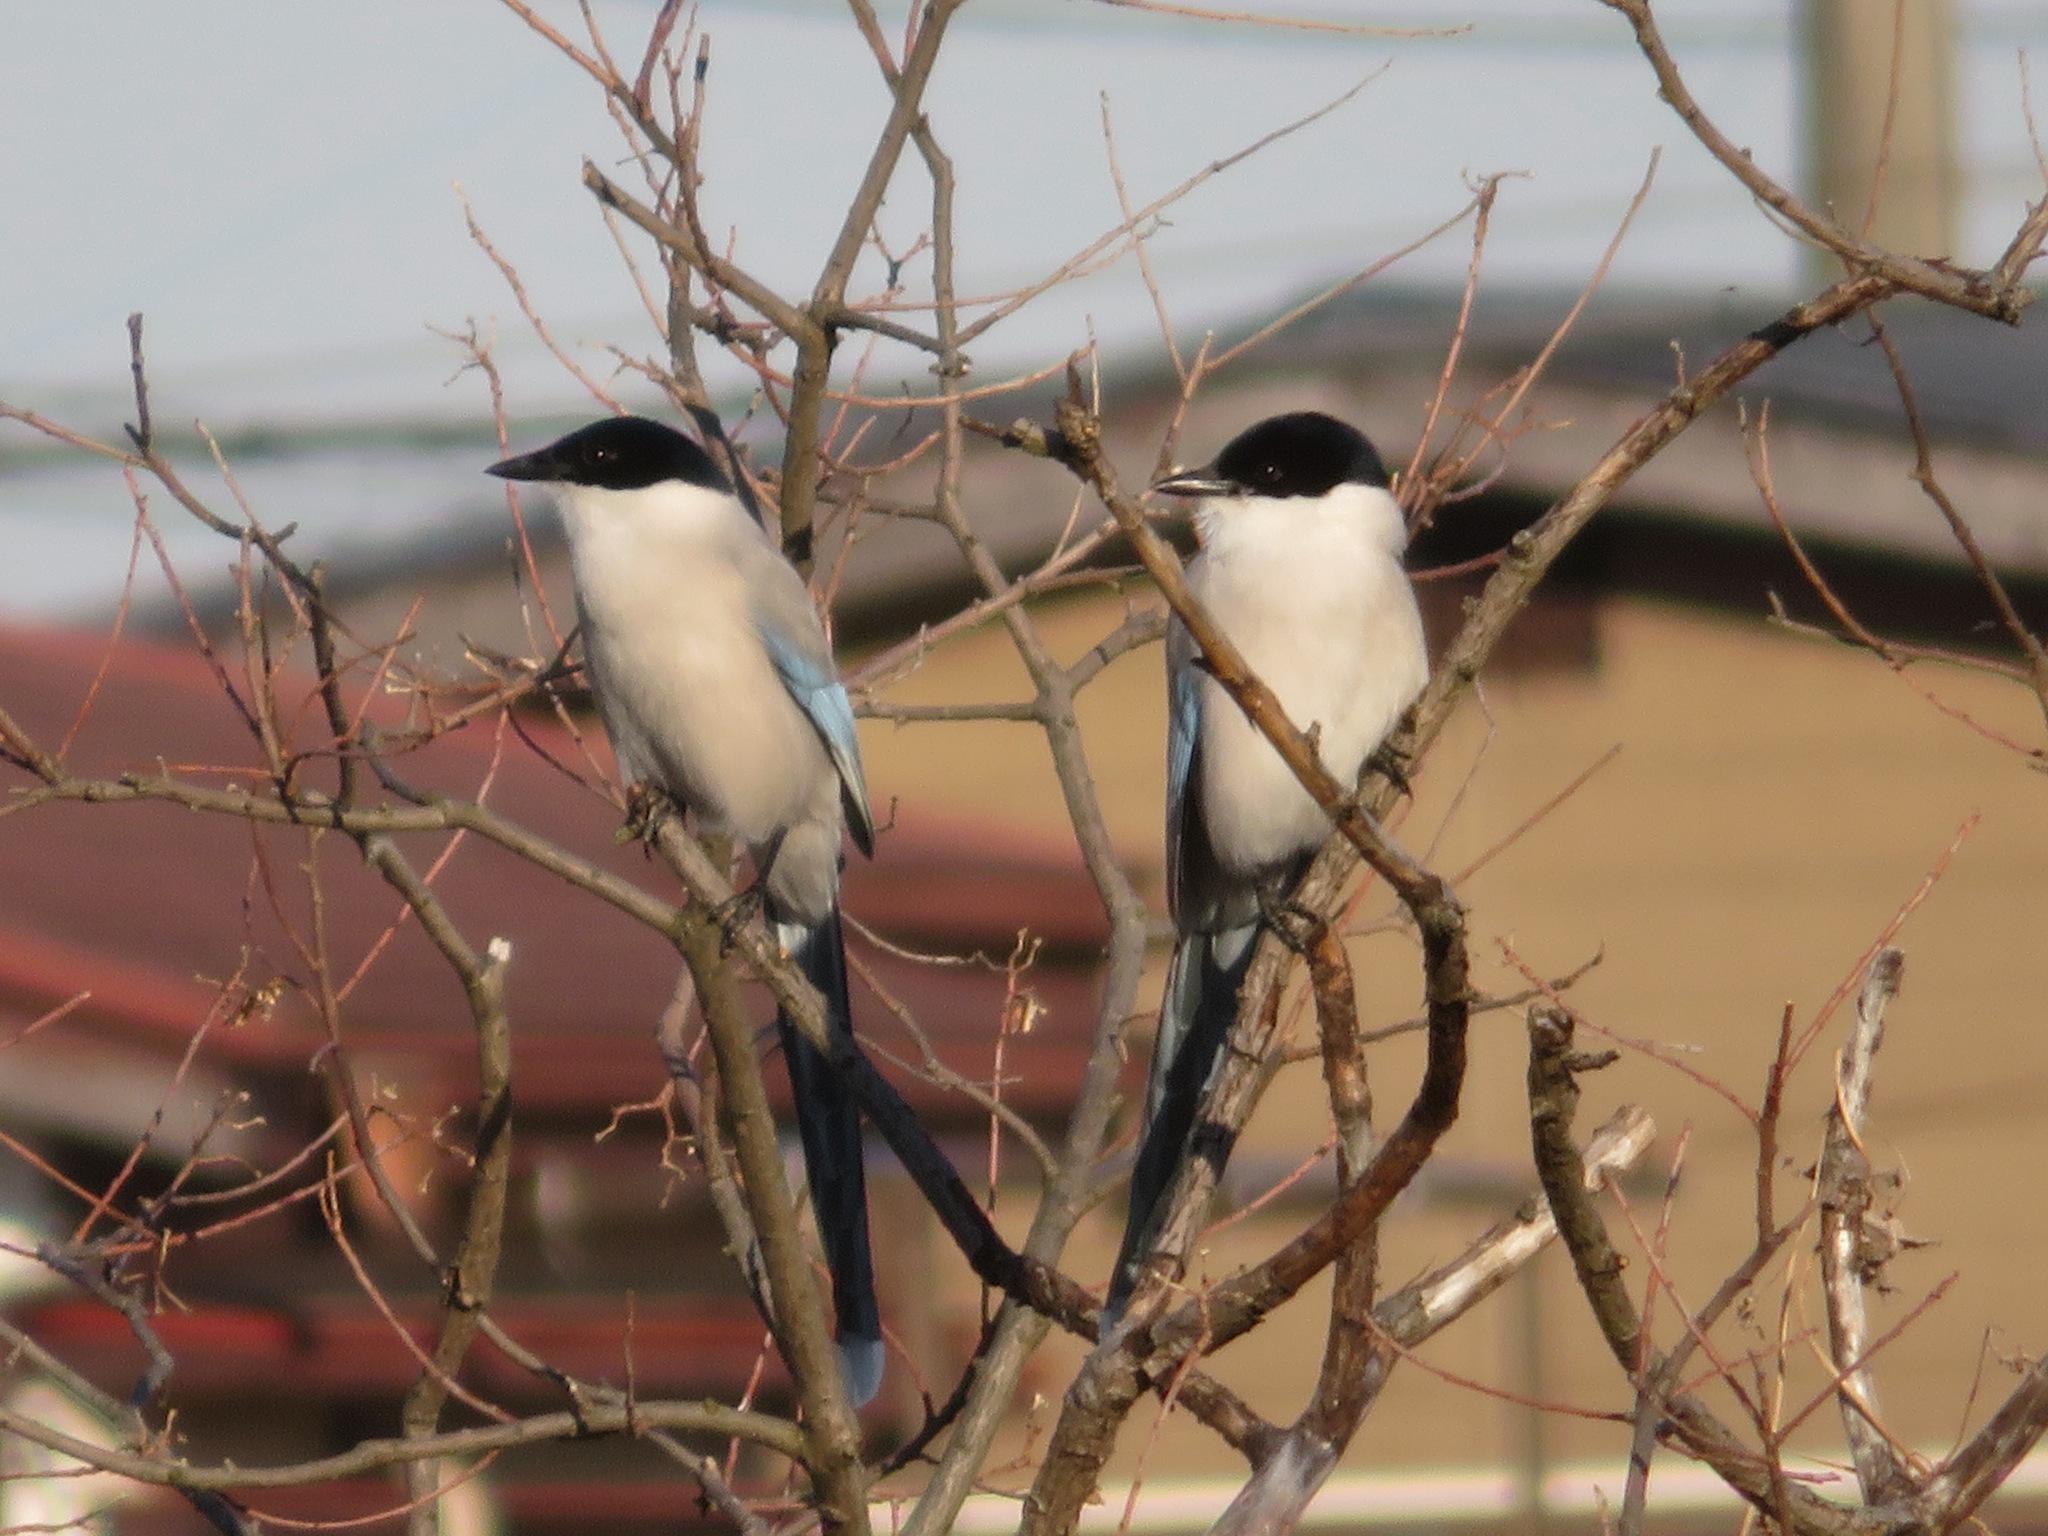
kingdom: Animalia
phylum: Chordata
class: Aves
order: Passeriformes
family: Corvidae
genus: Cyanopica
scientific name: Cyanopica cyanus
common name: Azure-winged magpie
